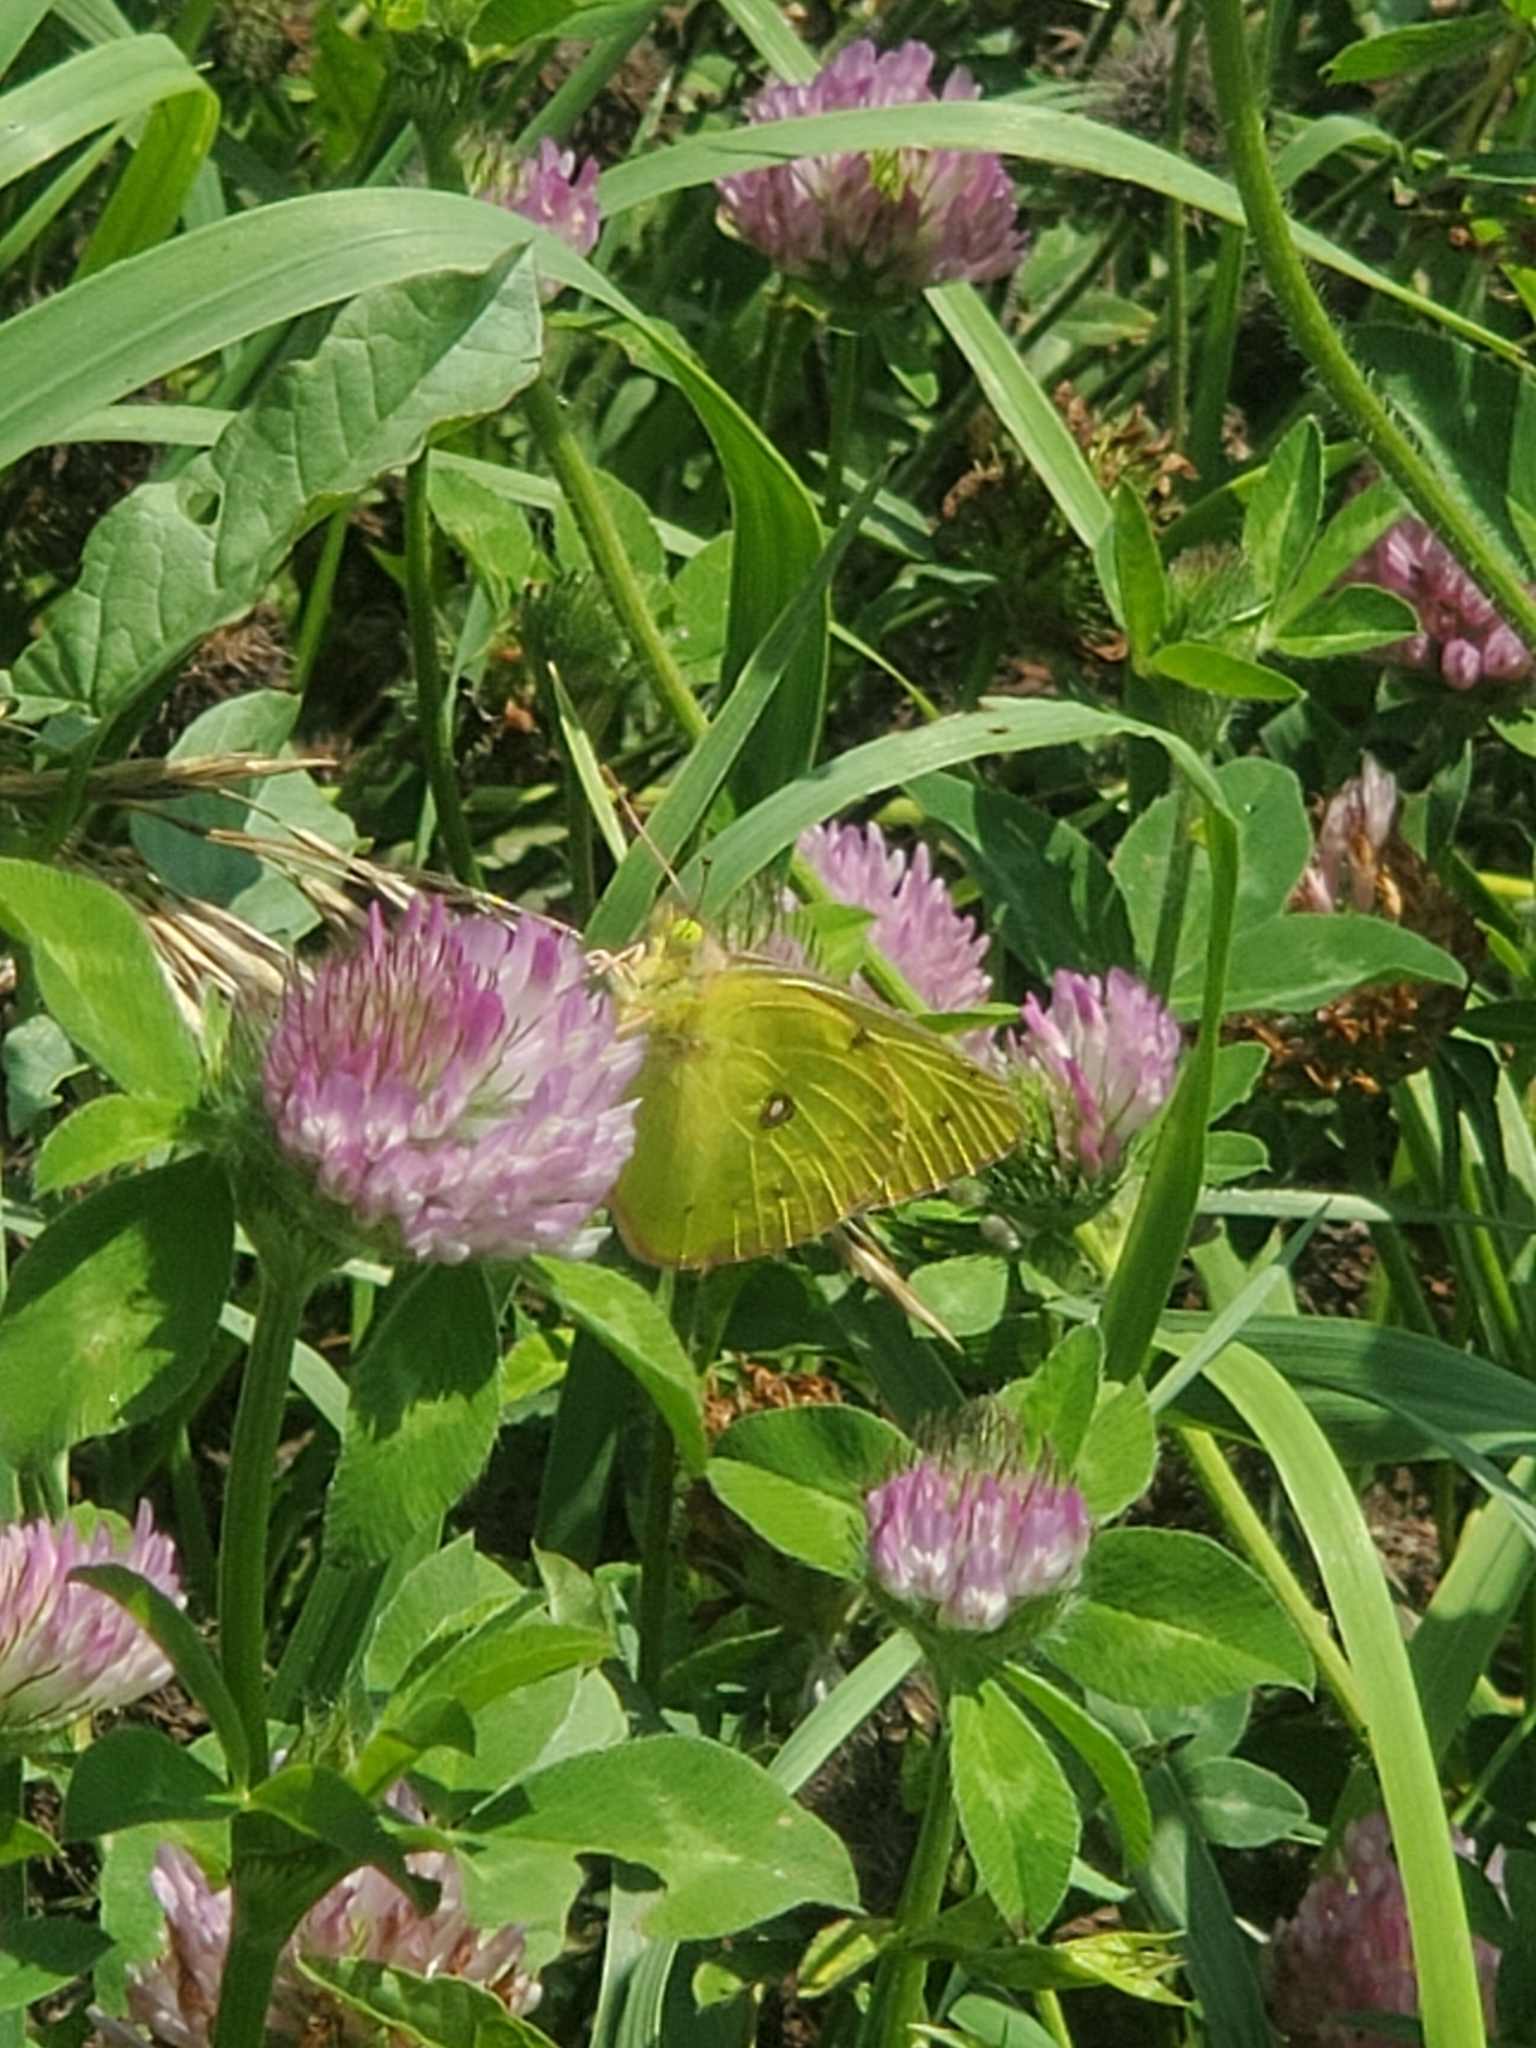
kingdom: Animalia
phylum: Arthropoda
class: Insecta
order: Lepidoptera
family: Pieridae
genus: Colias
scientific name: Colias philodice
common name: Clouded sulphur
